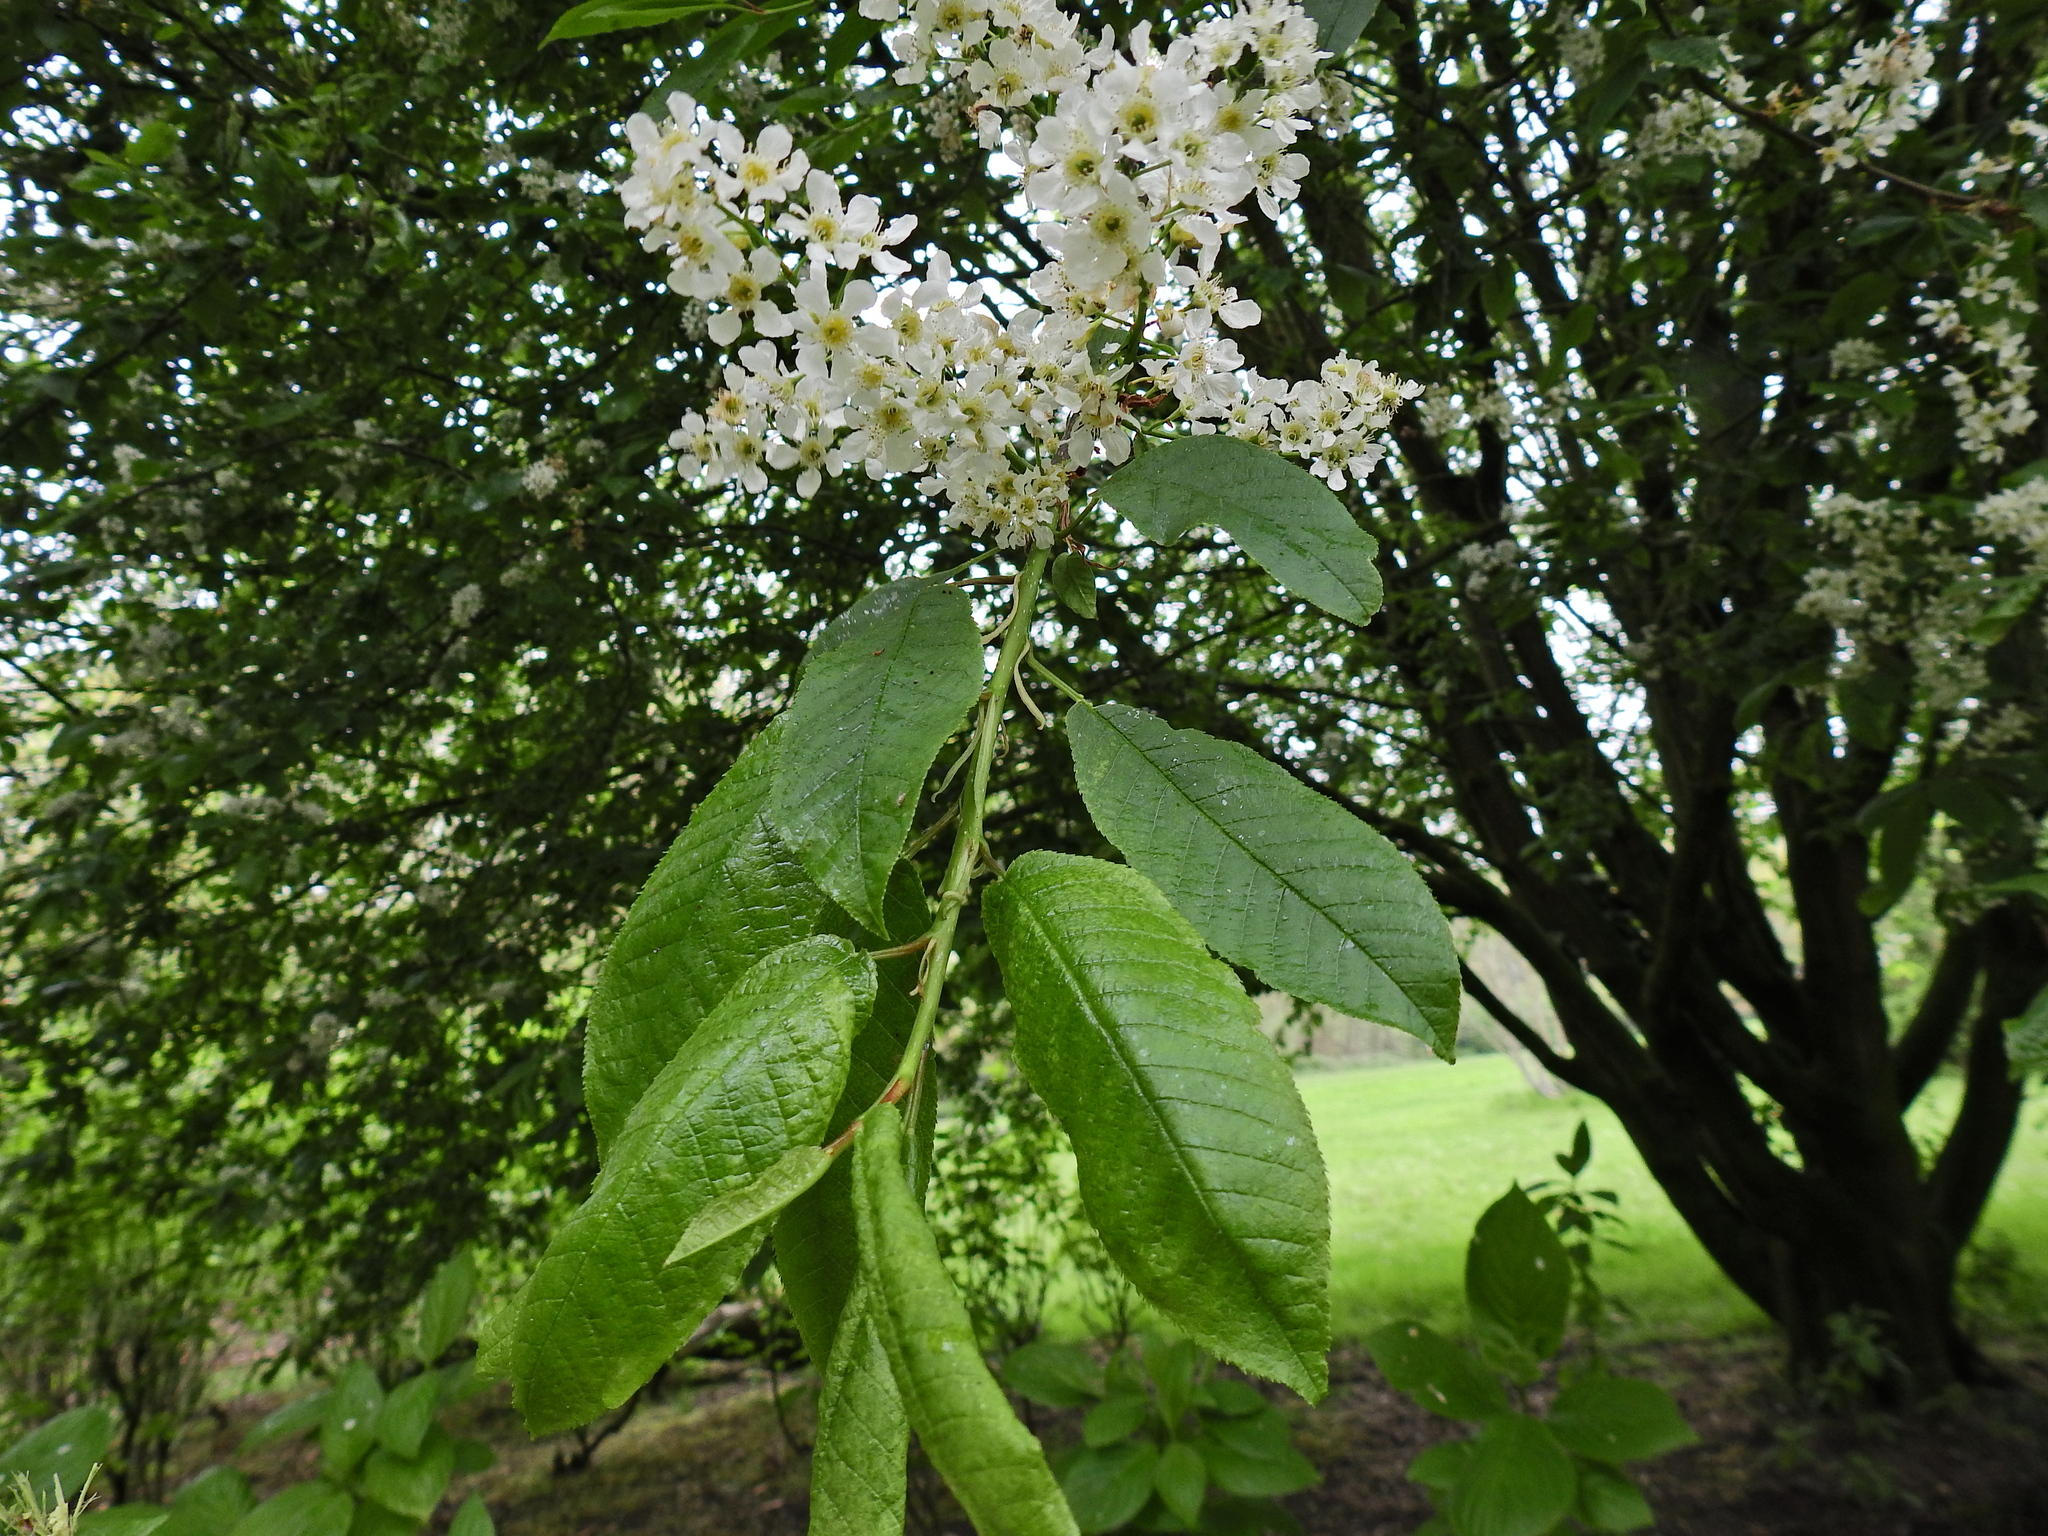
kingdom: Plantae
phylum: Tracheophyta
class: Magnoliopsida
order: Rosales
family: Rosaceae
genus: Prunus
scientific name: Prunus padus
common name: Bird cherry
